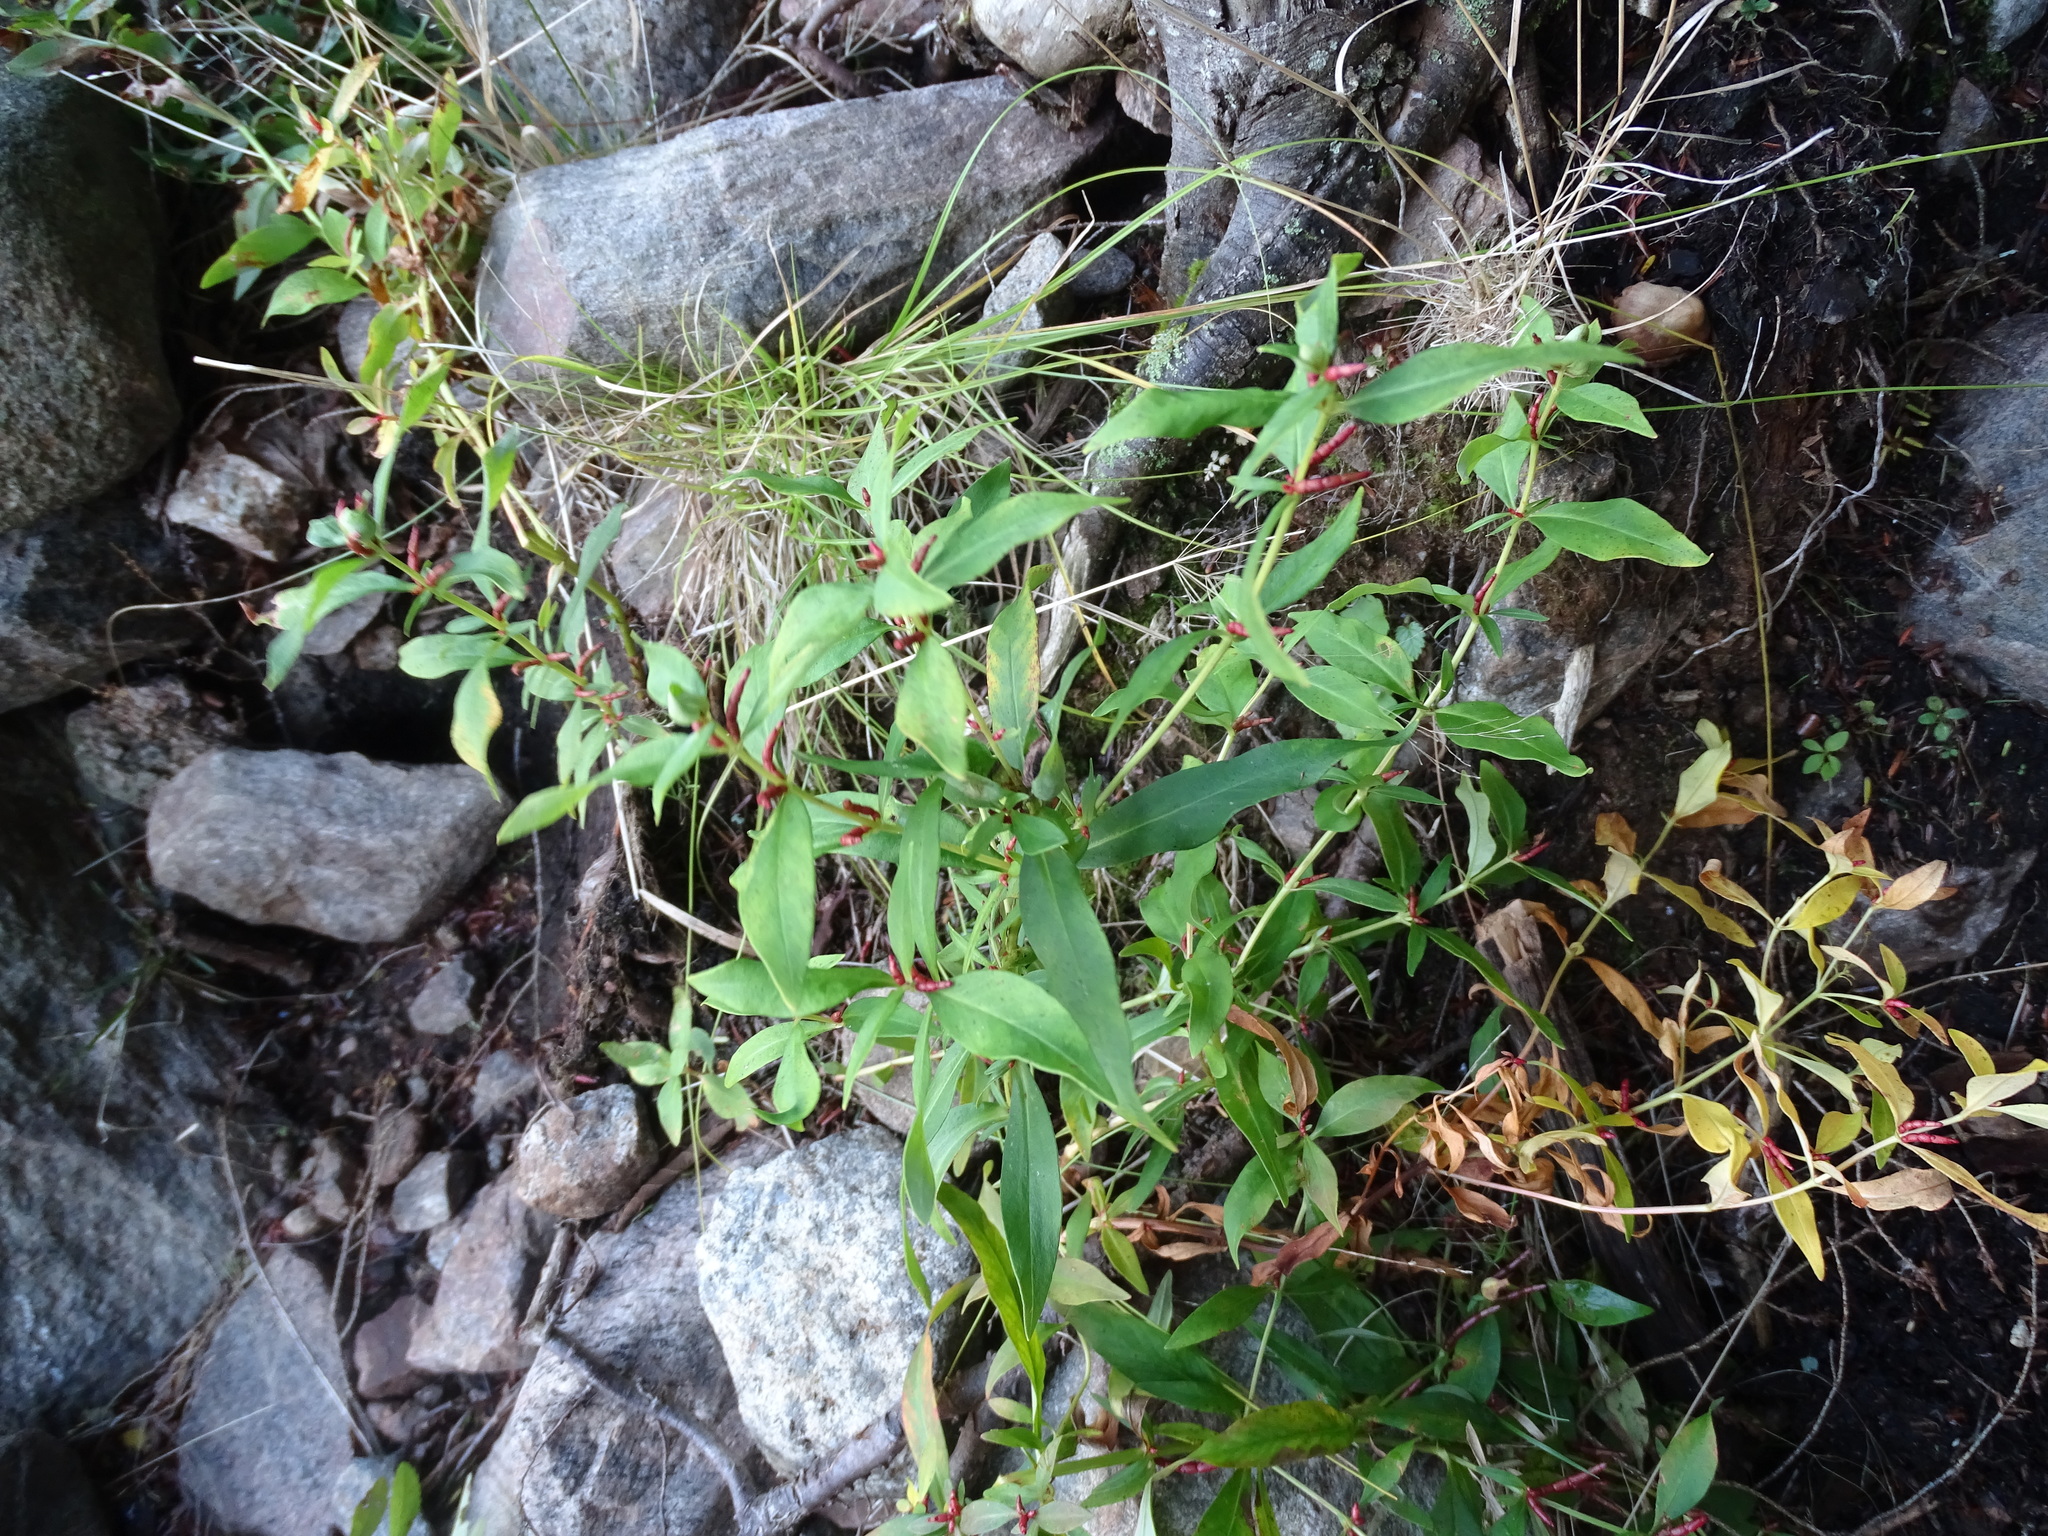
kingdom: Plantae
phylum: Tracheophyta
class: Magnoliopsida
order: Ericales
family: Primulaceae
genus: Lysimachia
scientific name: Lysimachia terrestris
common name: Lake loosestrife
